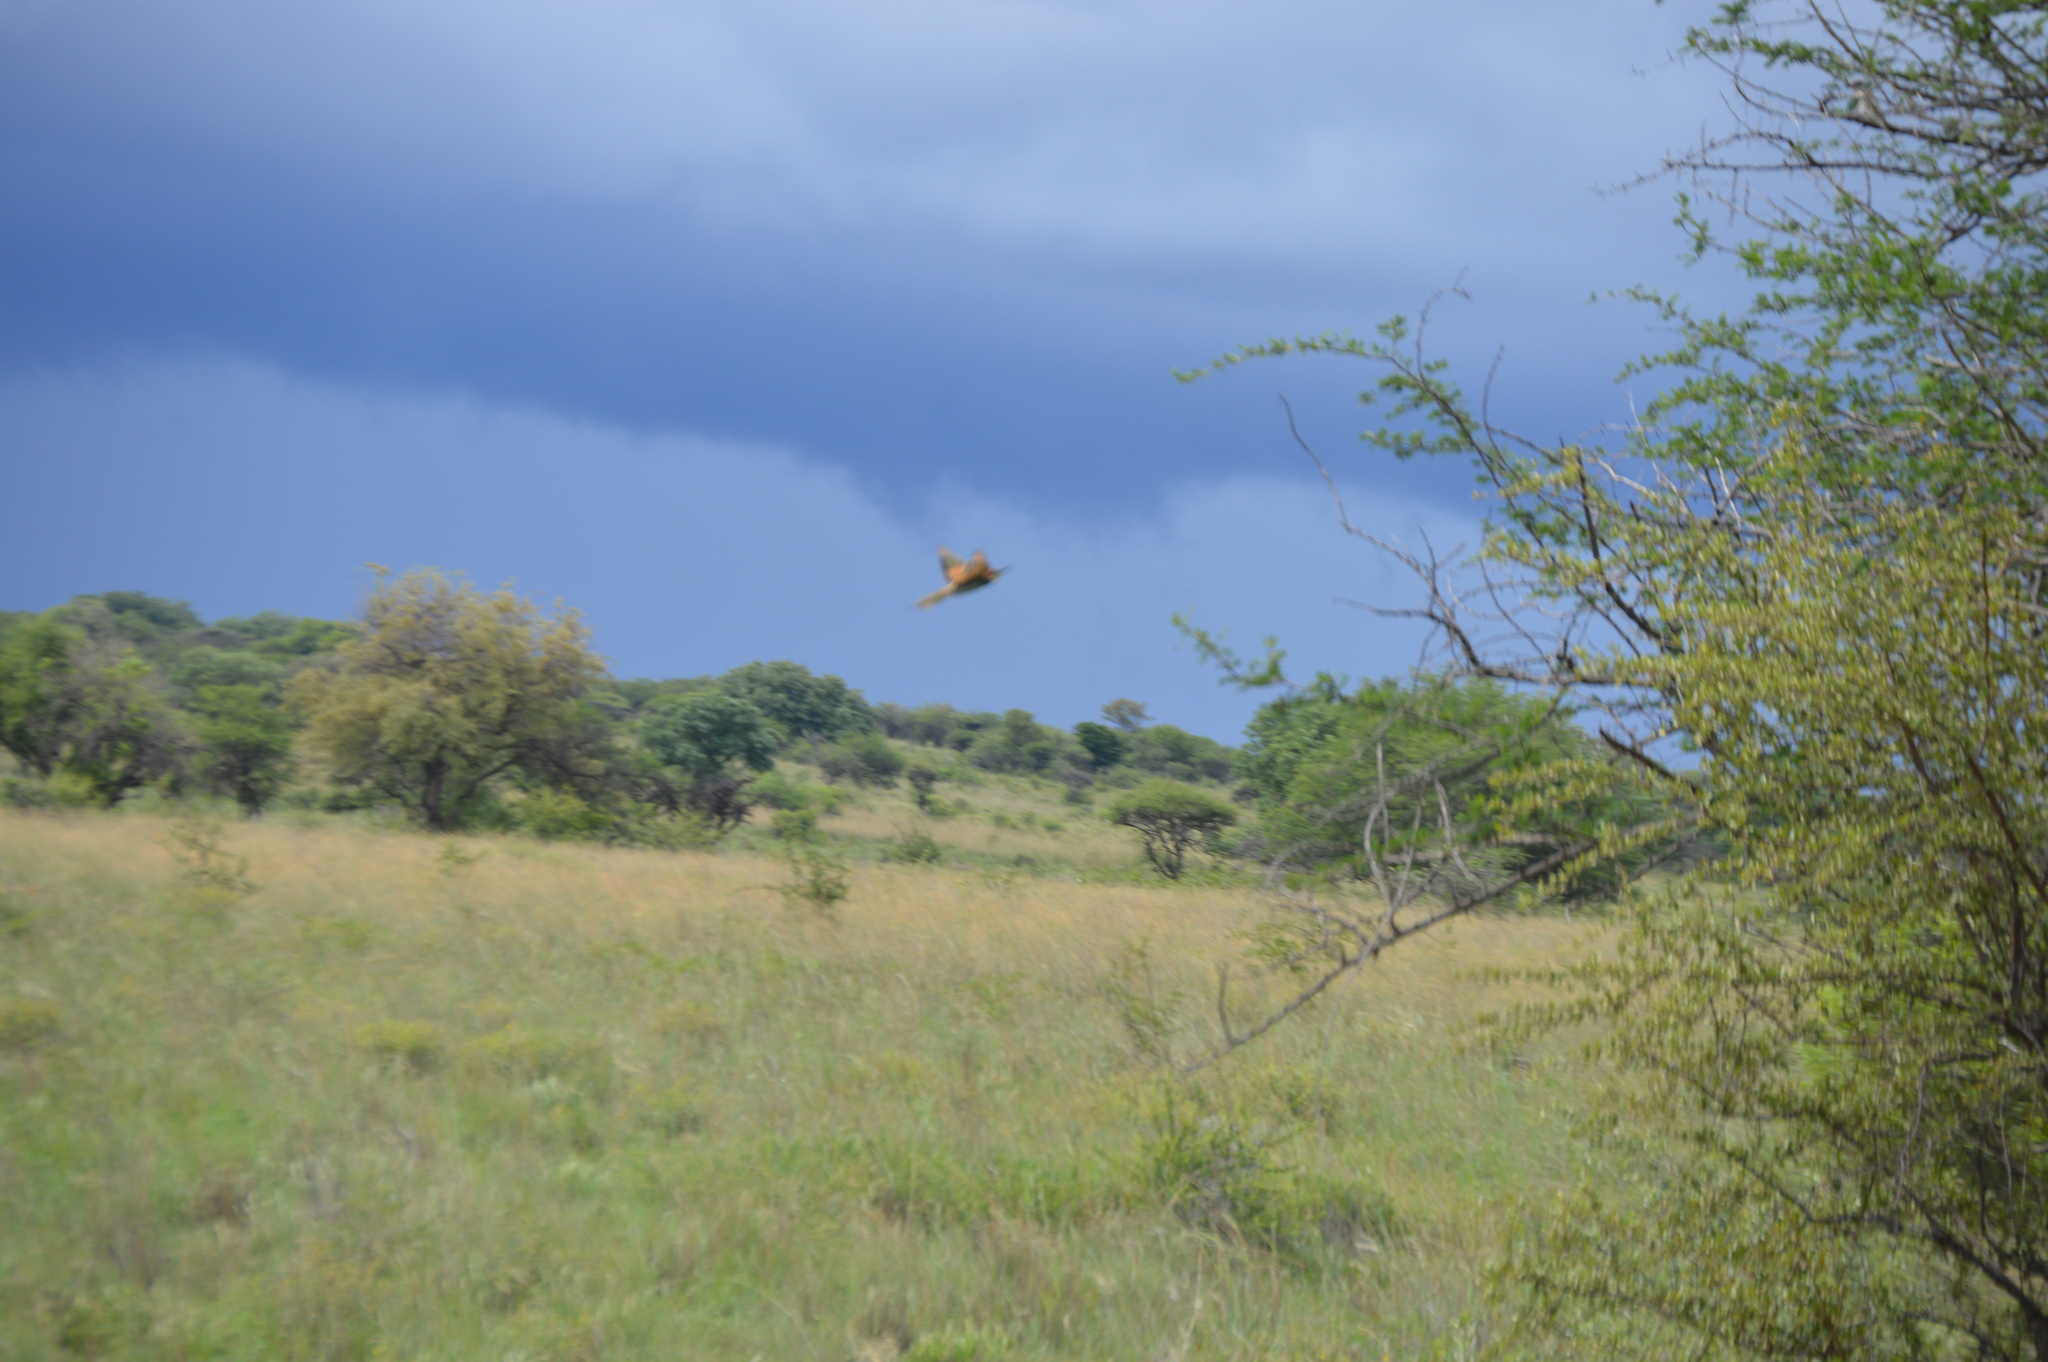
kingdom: Animalia
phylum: Chordata
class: Aves
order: Coraciiformes
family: Meropidae
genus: Merops
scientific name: Merops apiaster
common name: European bee-eater
